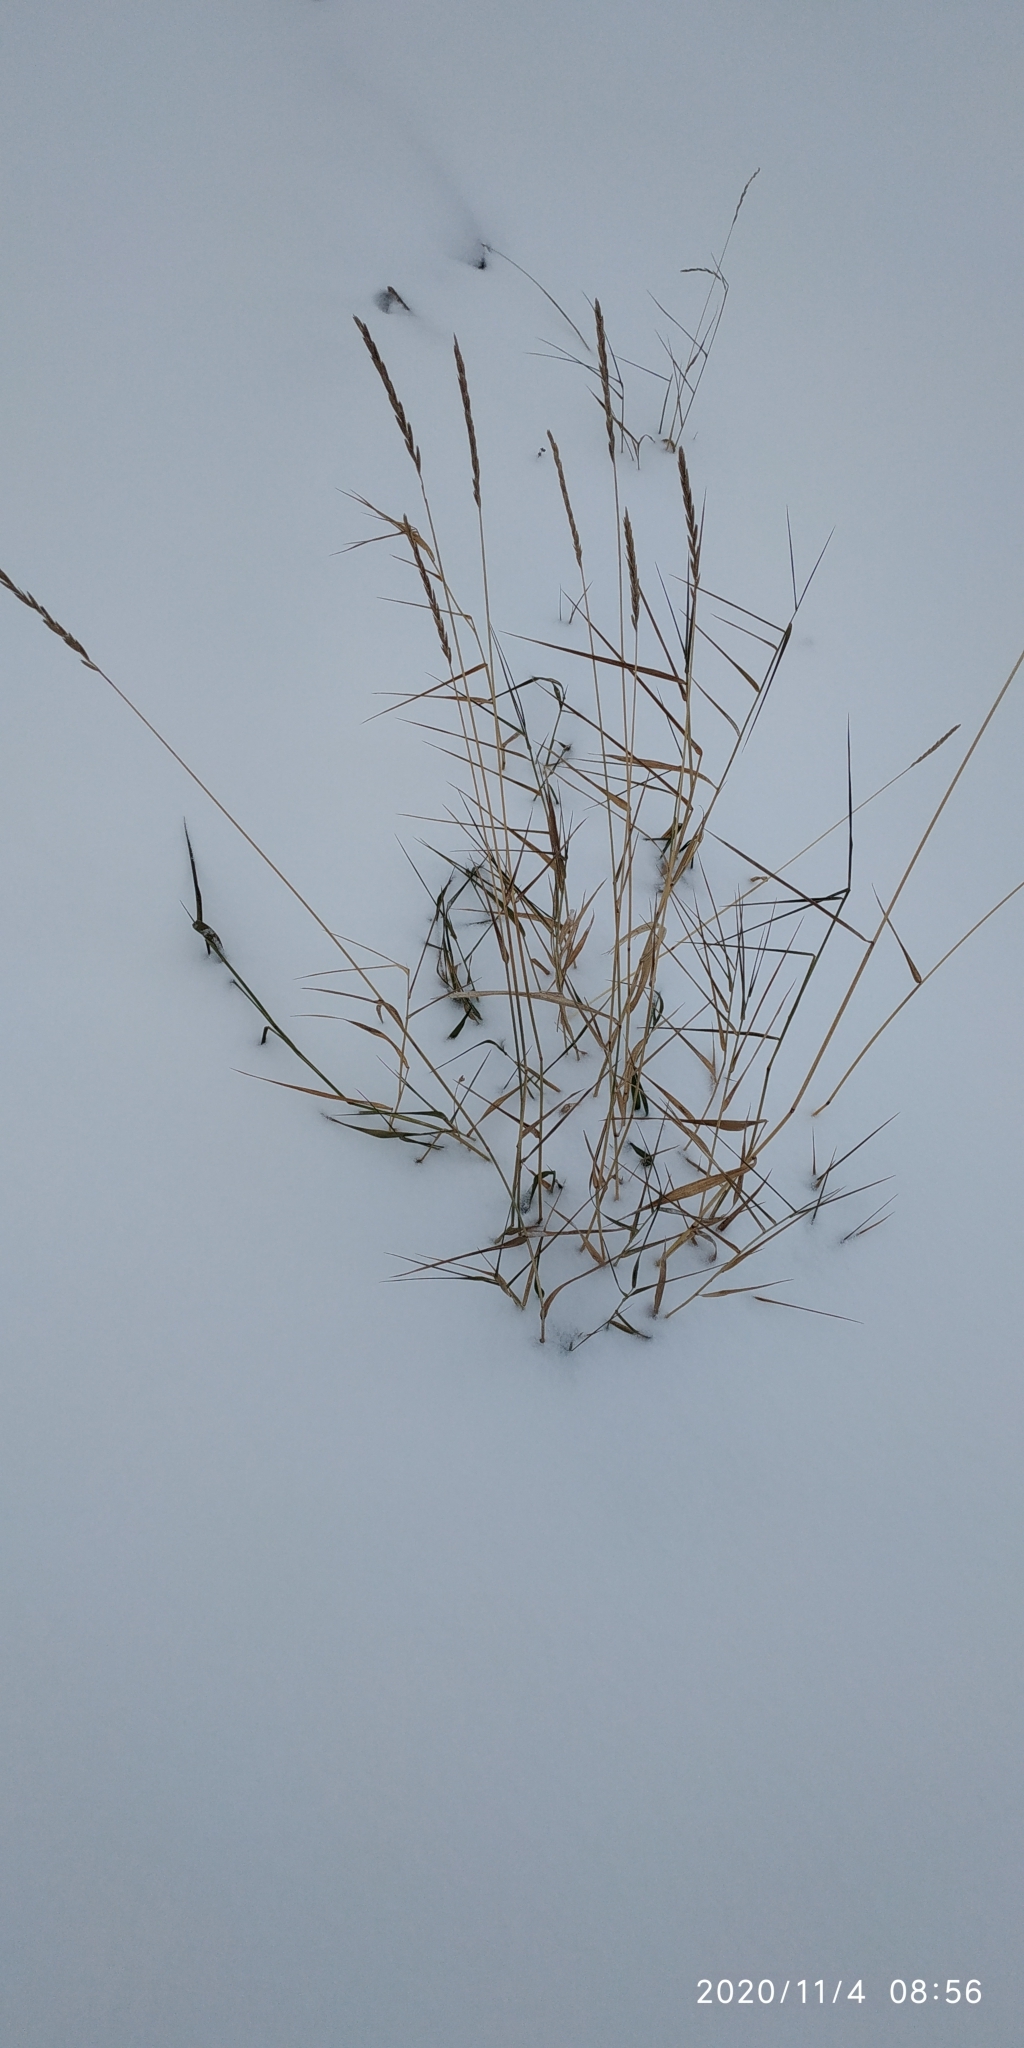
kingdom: Plantae
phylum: Tracheophyta
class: Liliopsida
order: Poales
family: Poaceae
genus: Elymus
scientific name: Elymus repens
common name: Quackgrass
